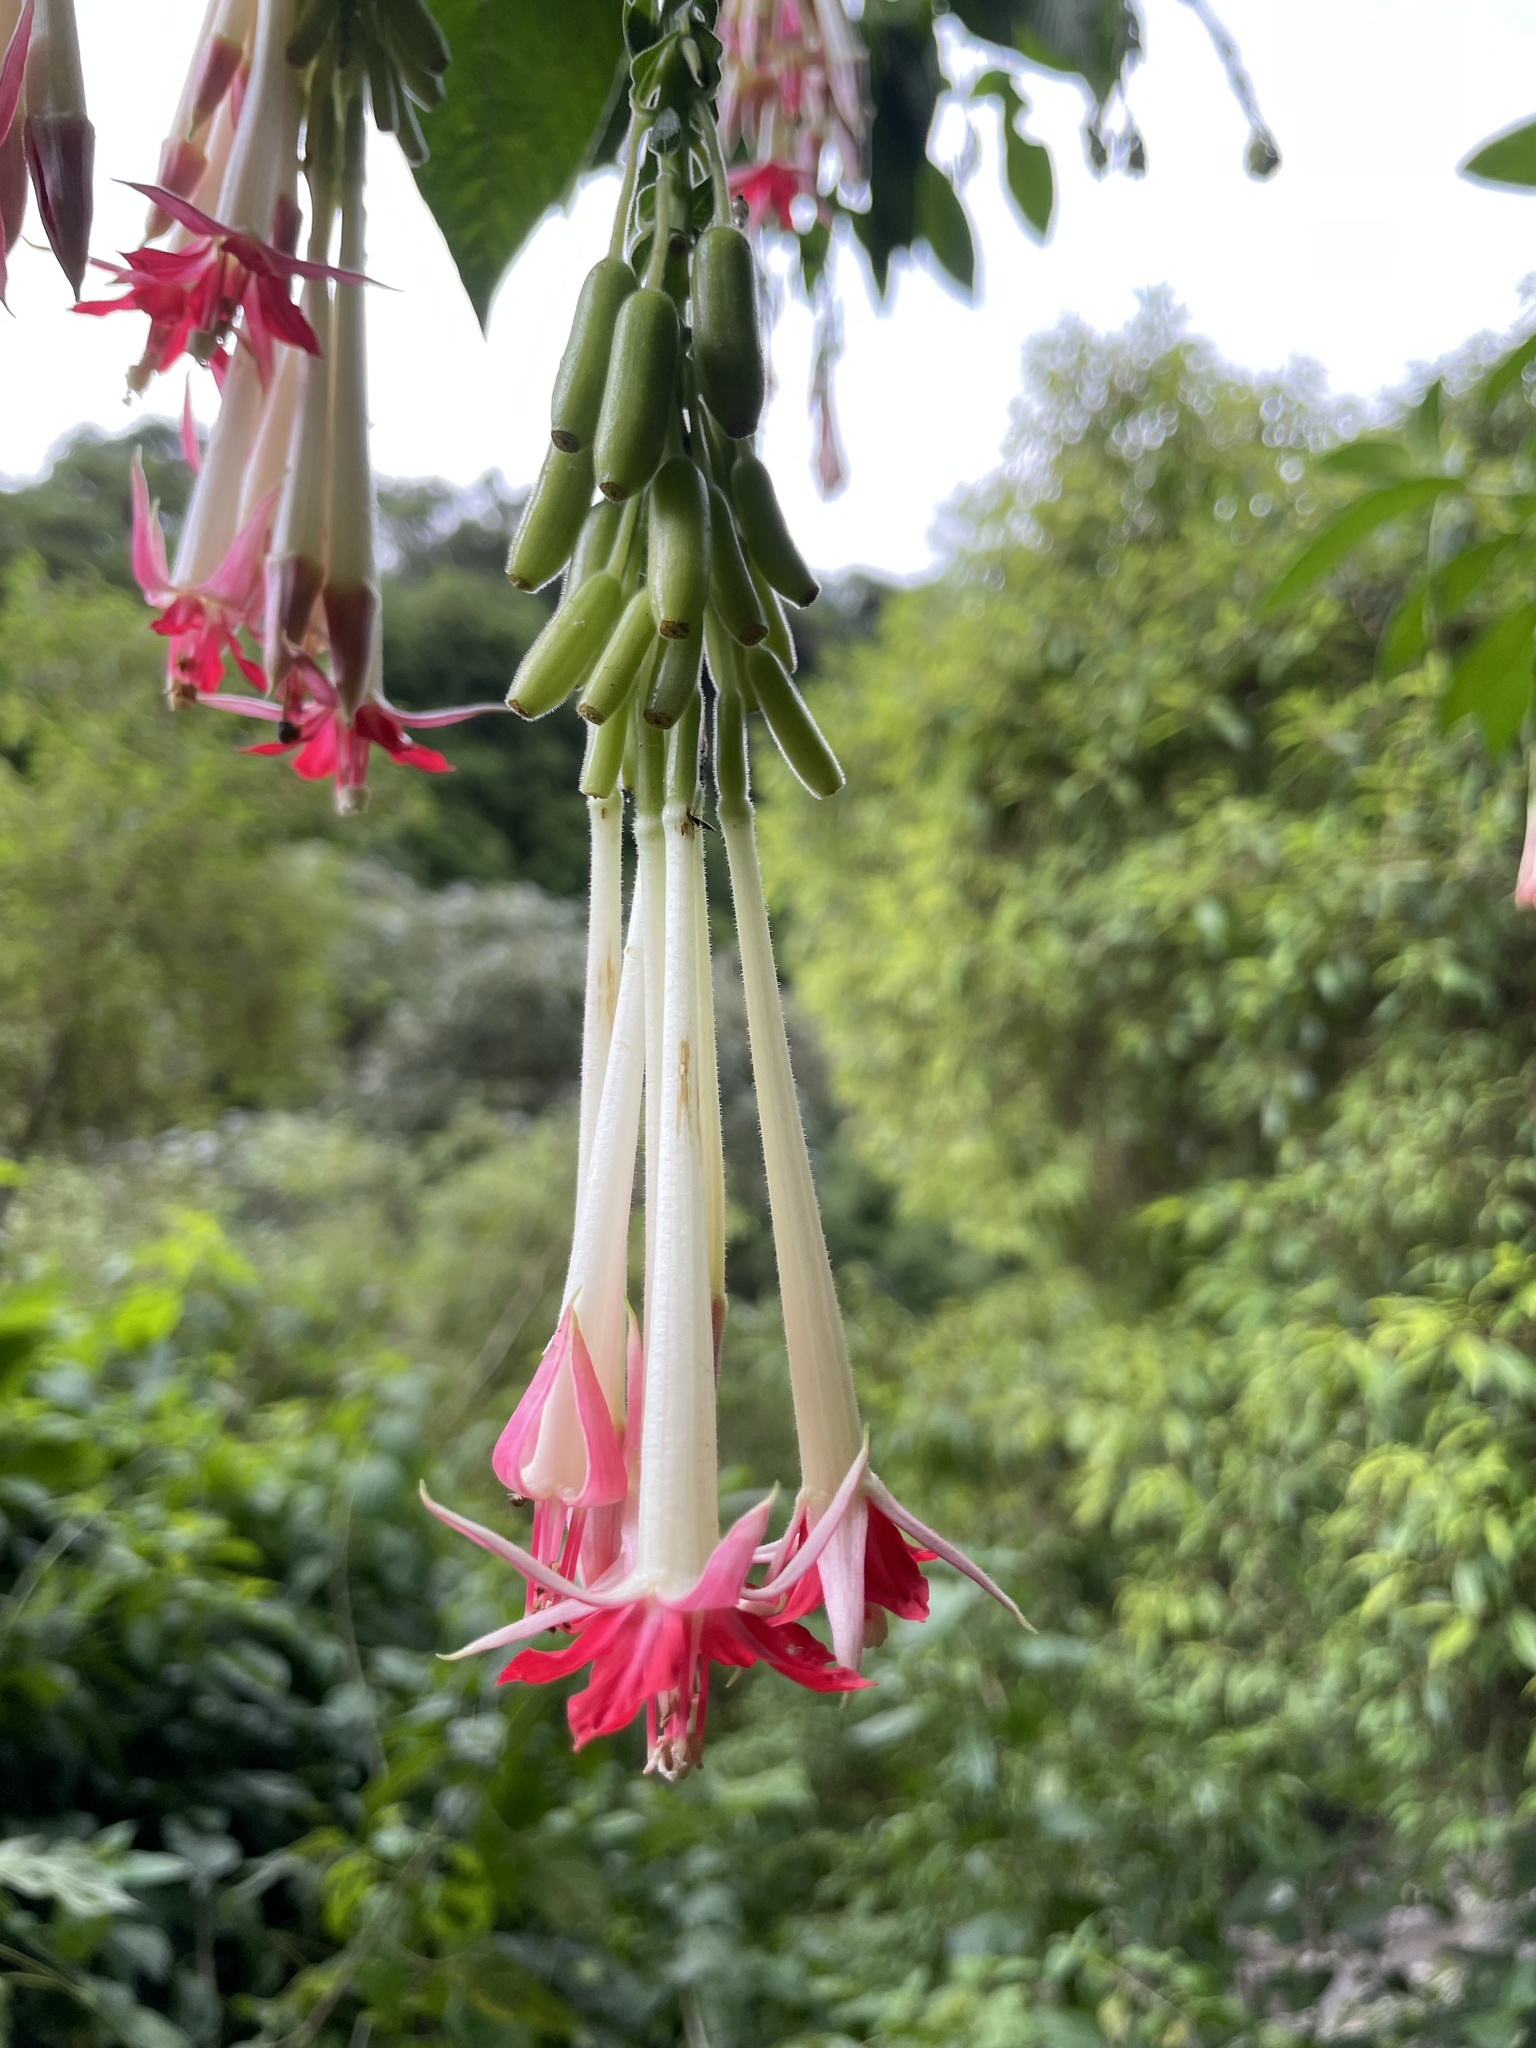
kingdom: Plantae
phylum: Tracheophyta
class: Magnoliopsida
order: Myrtales
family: Onagraceae
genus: Fuchsia
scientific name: Fuchsia boliviana
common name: Bolivian fuchsia
